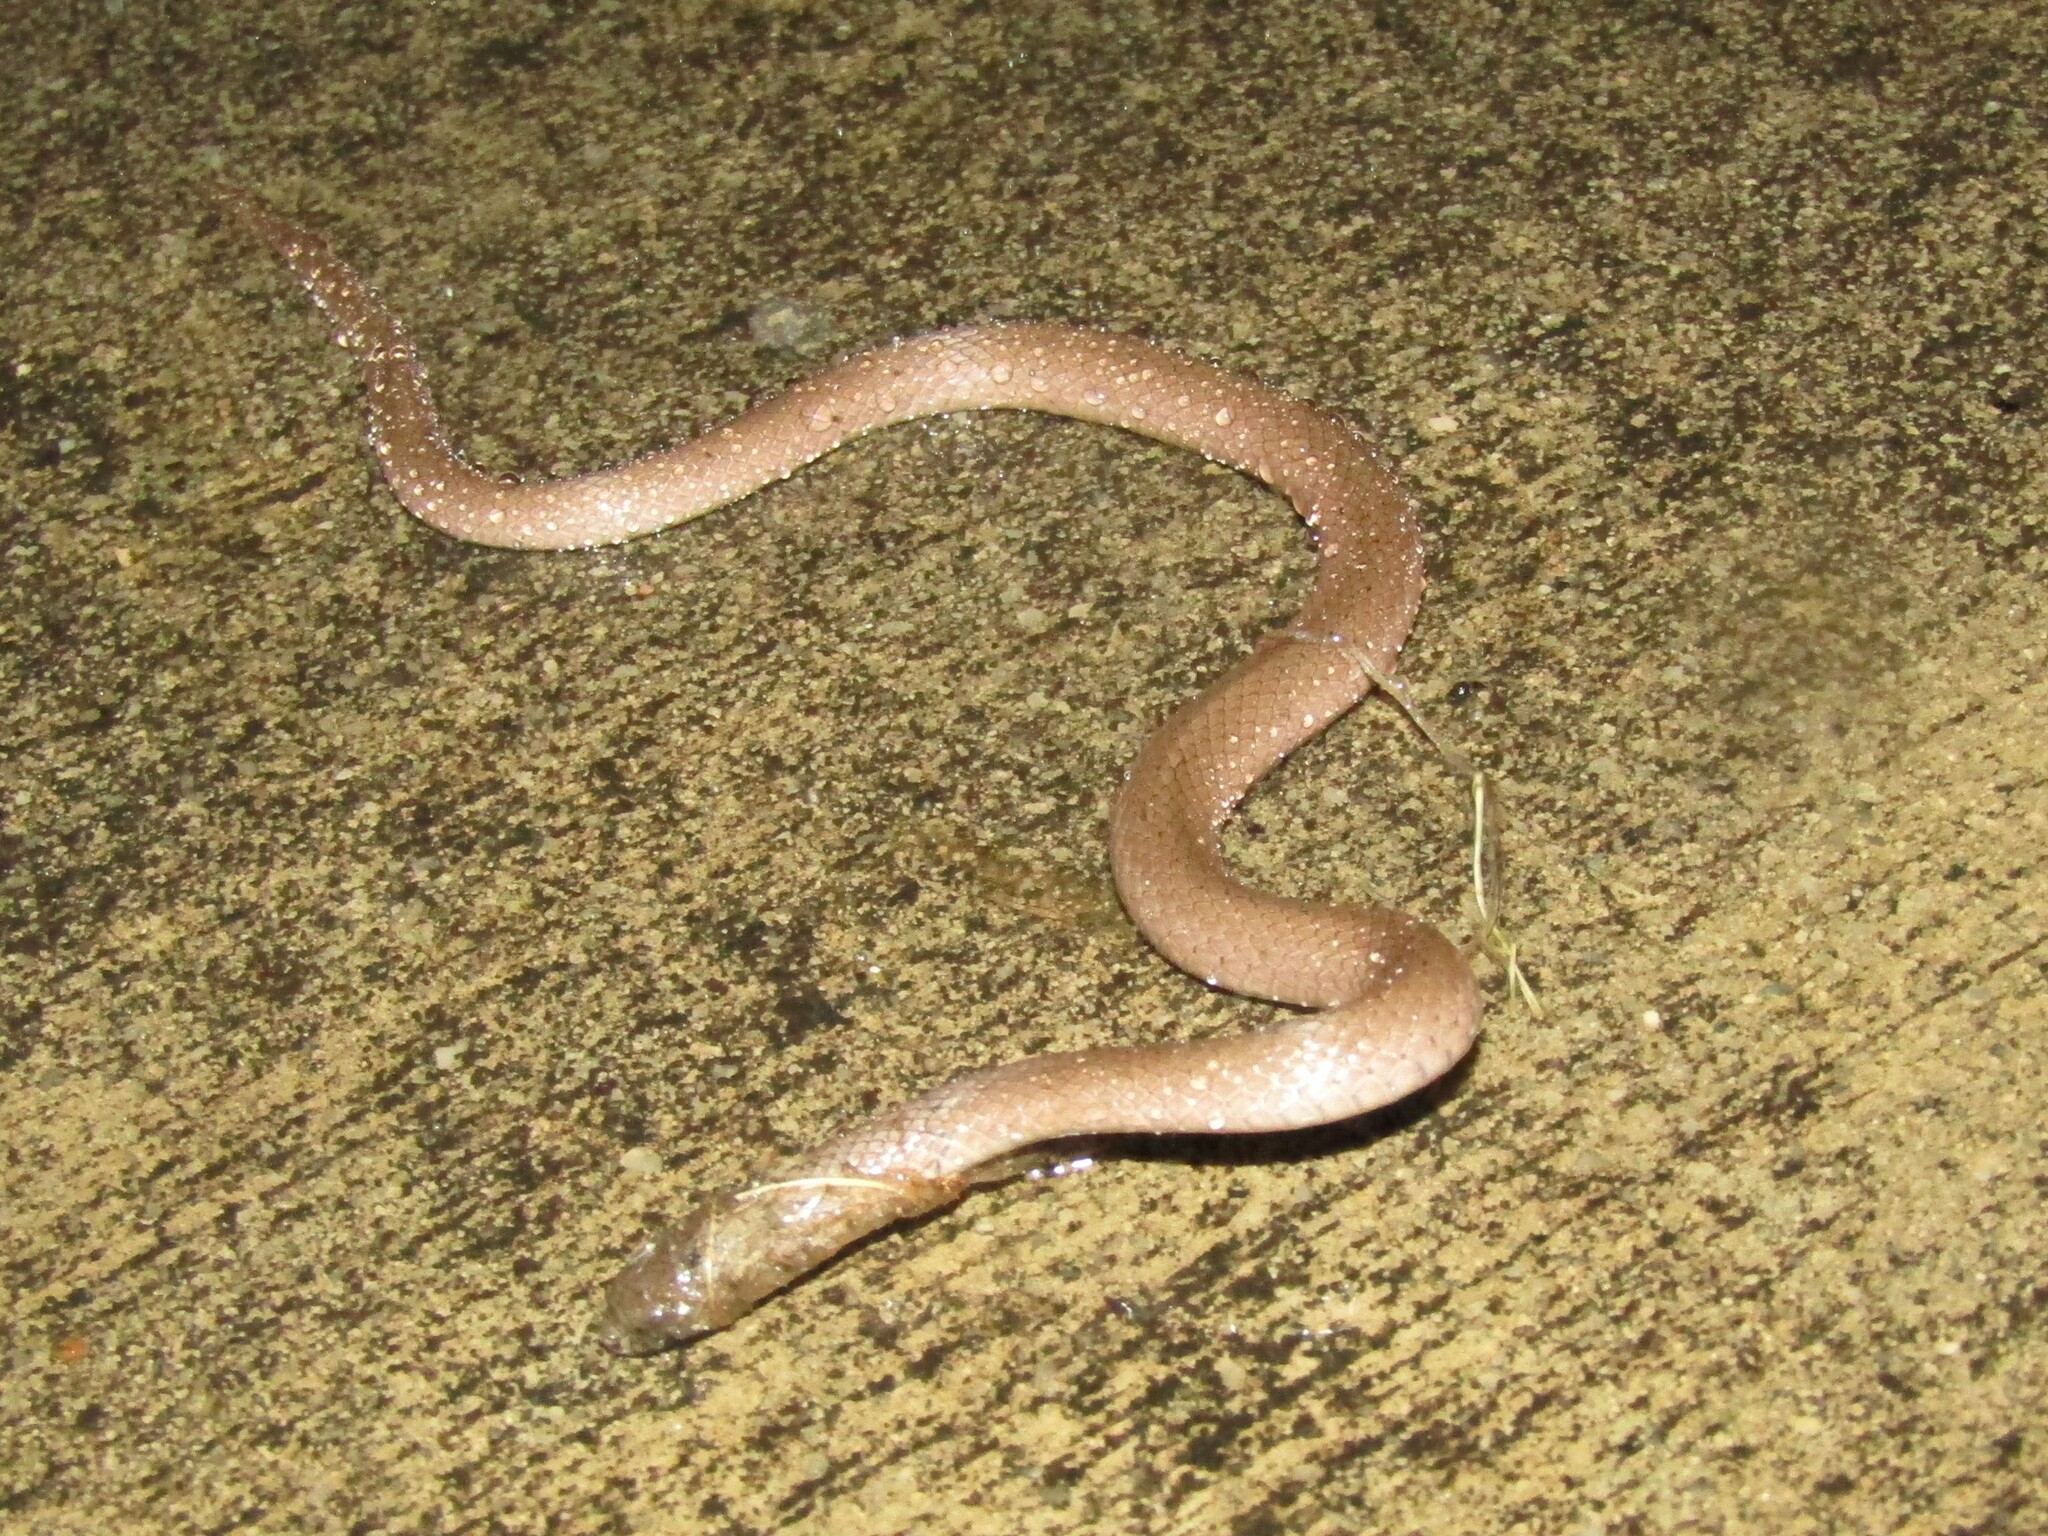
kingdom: Animalia
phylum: Chordata
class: Squamata
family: Colubridae
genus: Virginia
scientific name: Virginia valeriae
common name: Smooth earth snake
